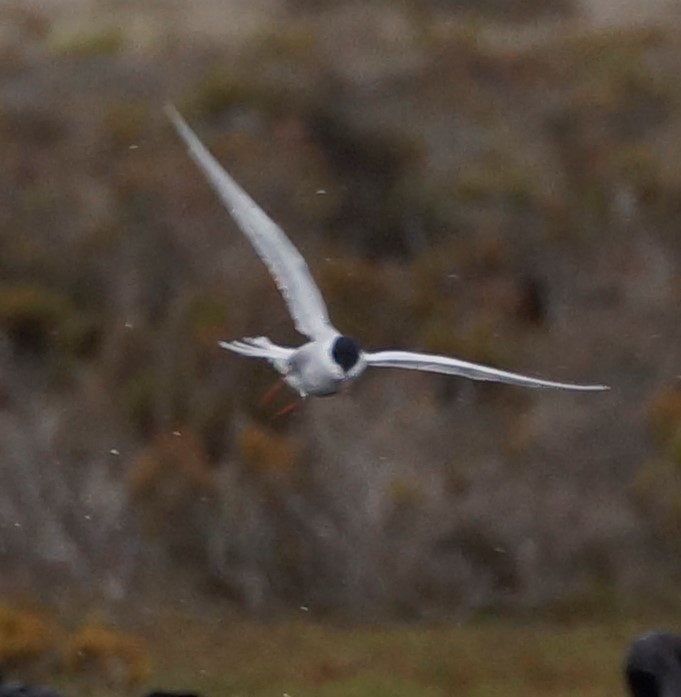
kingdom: Animalia
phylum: Chordata
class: Aves
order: Charadriiformes
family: Laridae
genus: Chlidonias
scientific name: Chlidonias hybrida
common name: Whiskered tern
